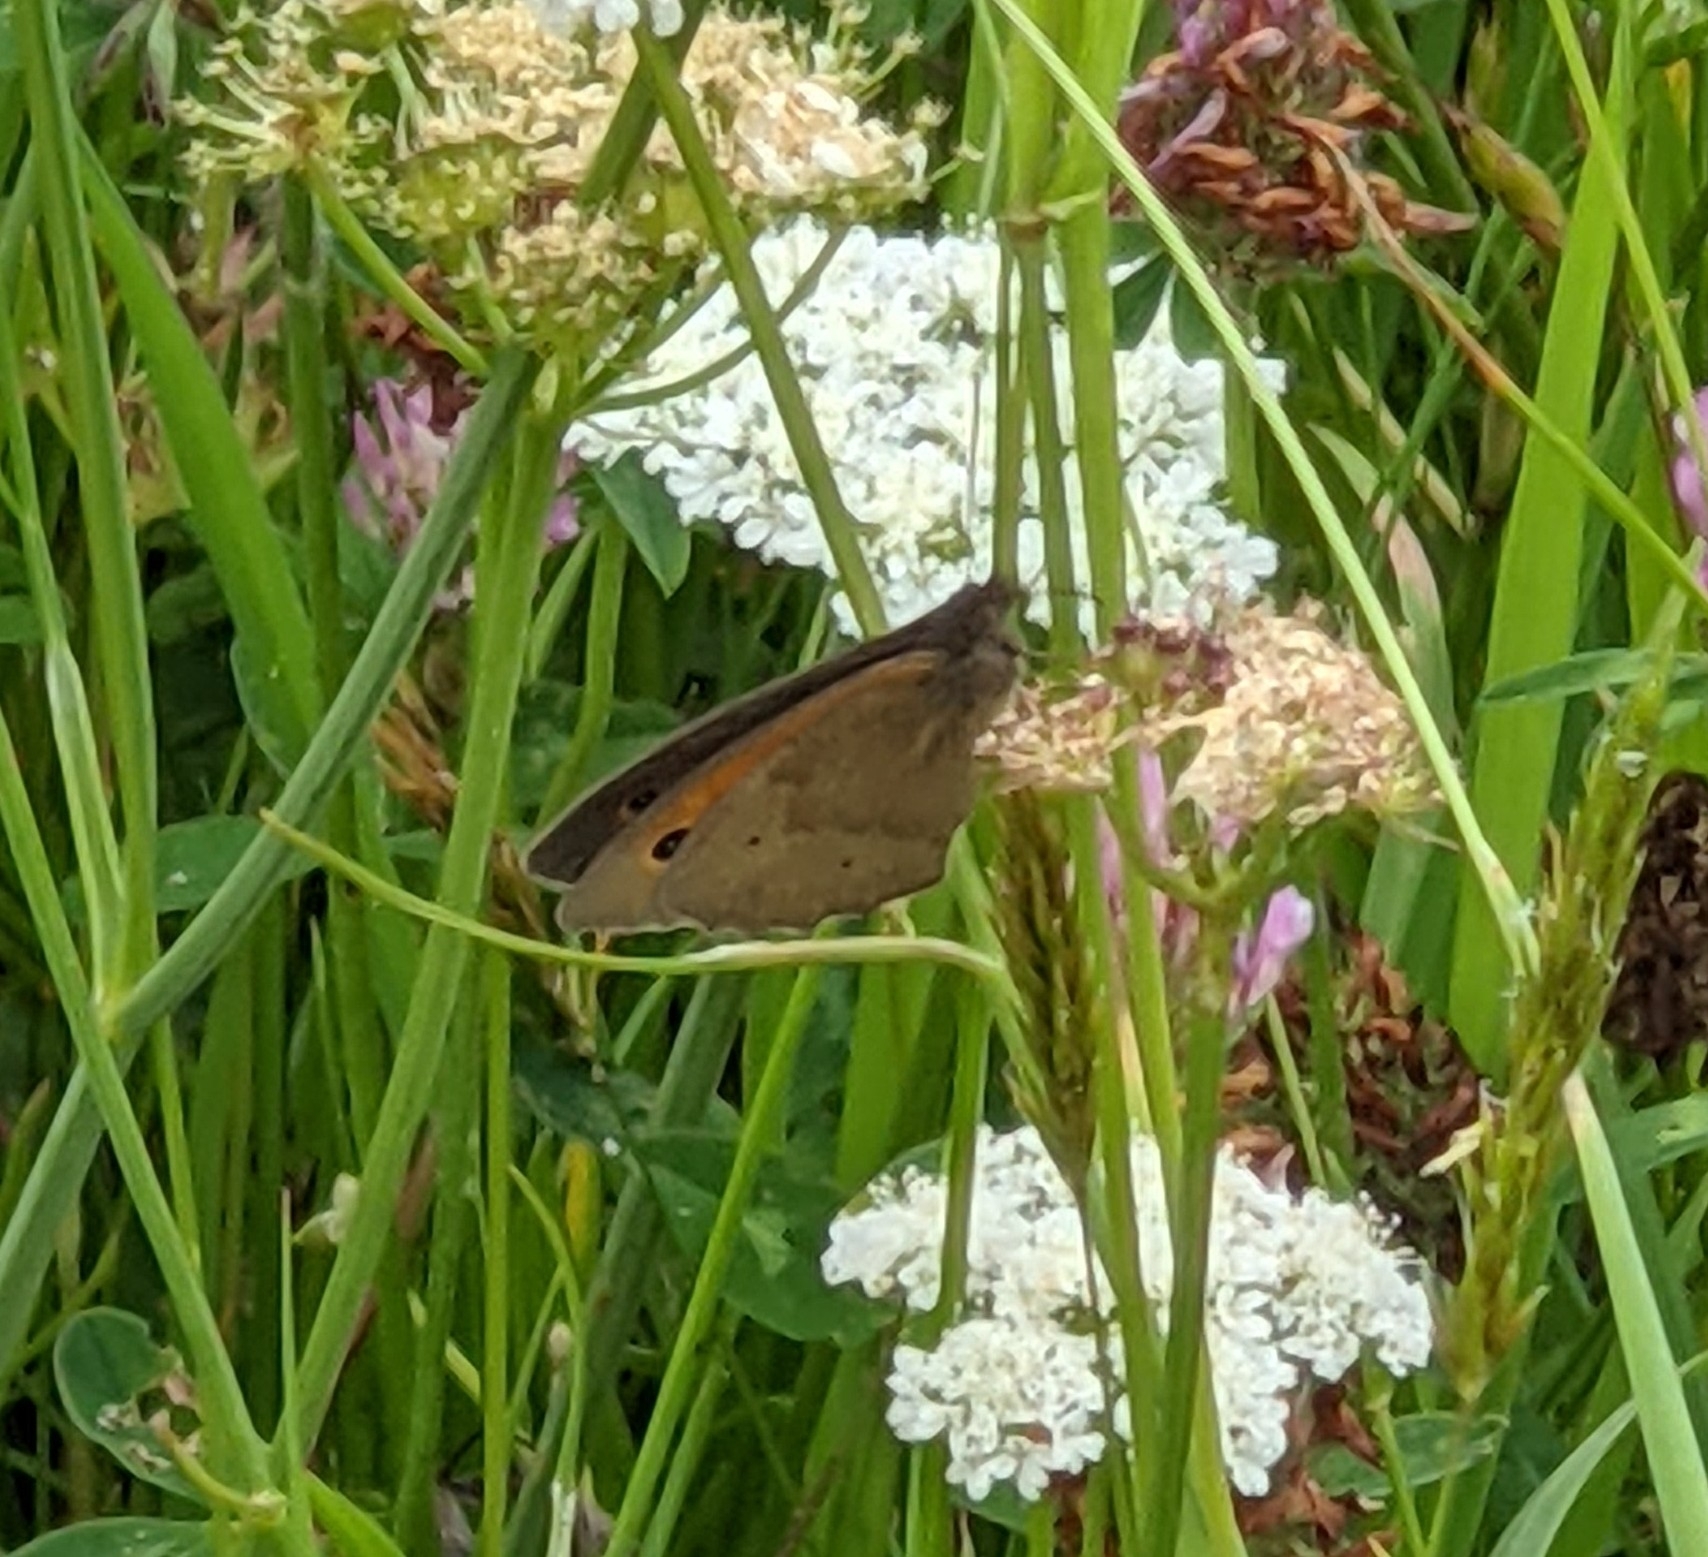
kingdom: Animalia
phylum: Arthropoda
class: Insecta
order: Lepidoptera
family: Nymphalidae
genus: Maniola
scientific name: Maniola jurtina
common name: Meadow brown
